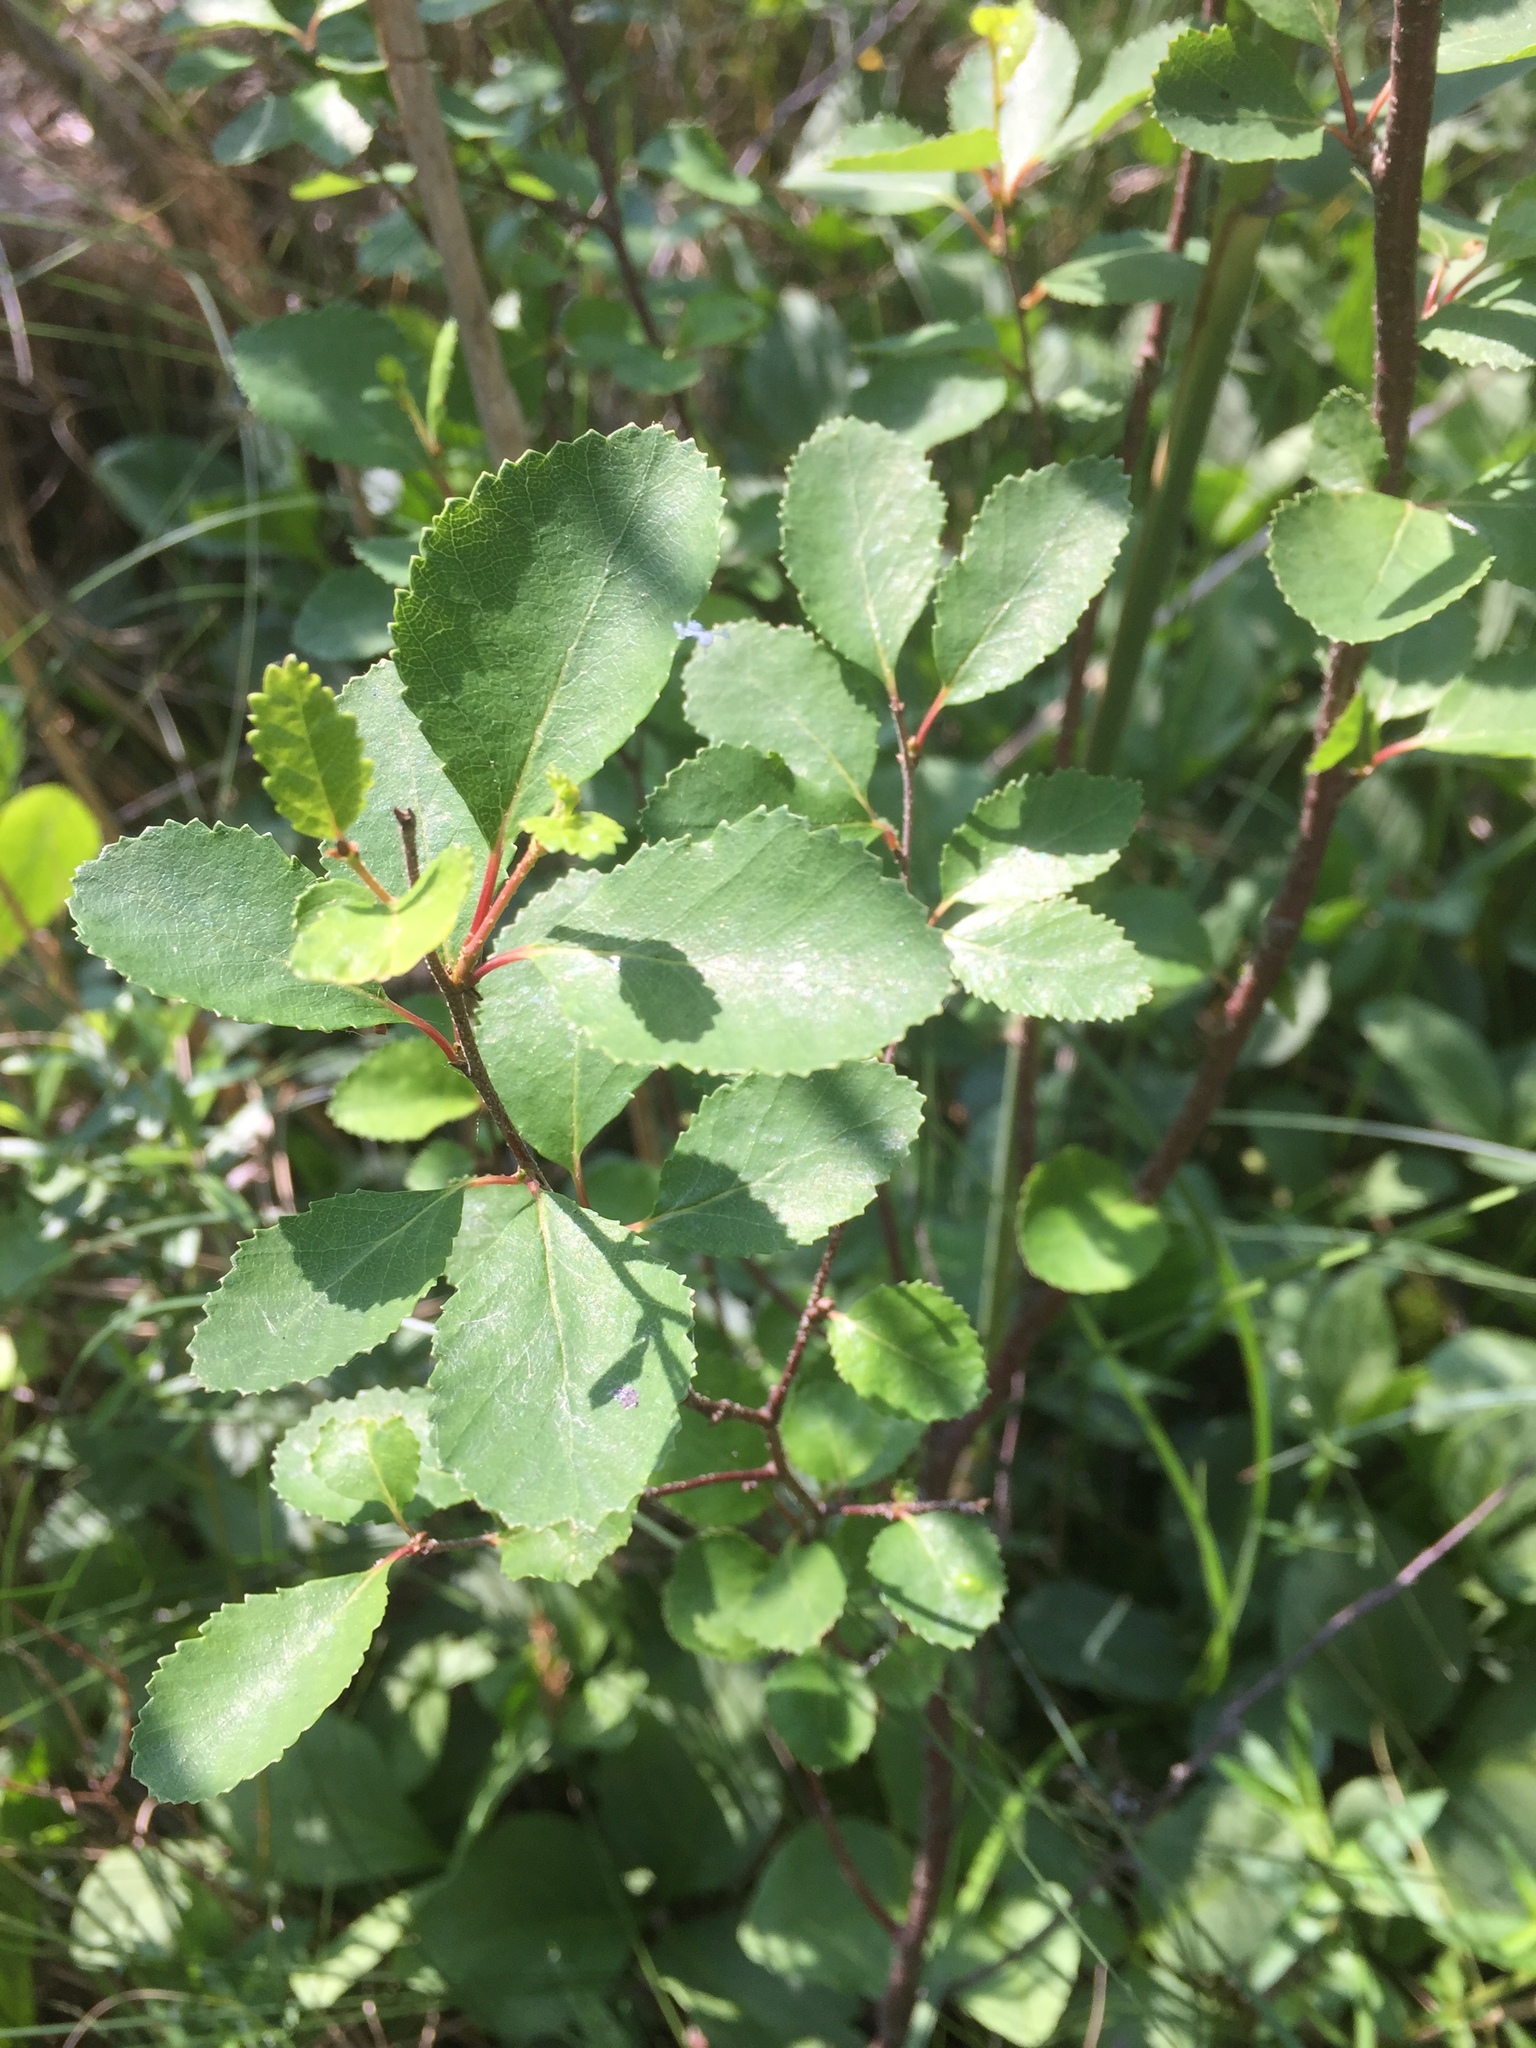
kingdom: Plantae
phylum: Tracheophyta
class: Magnoliopsida
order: Fagales
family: Betulaceae
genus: Betula
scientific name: Betula humilis
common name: Shrubby birch
